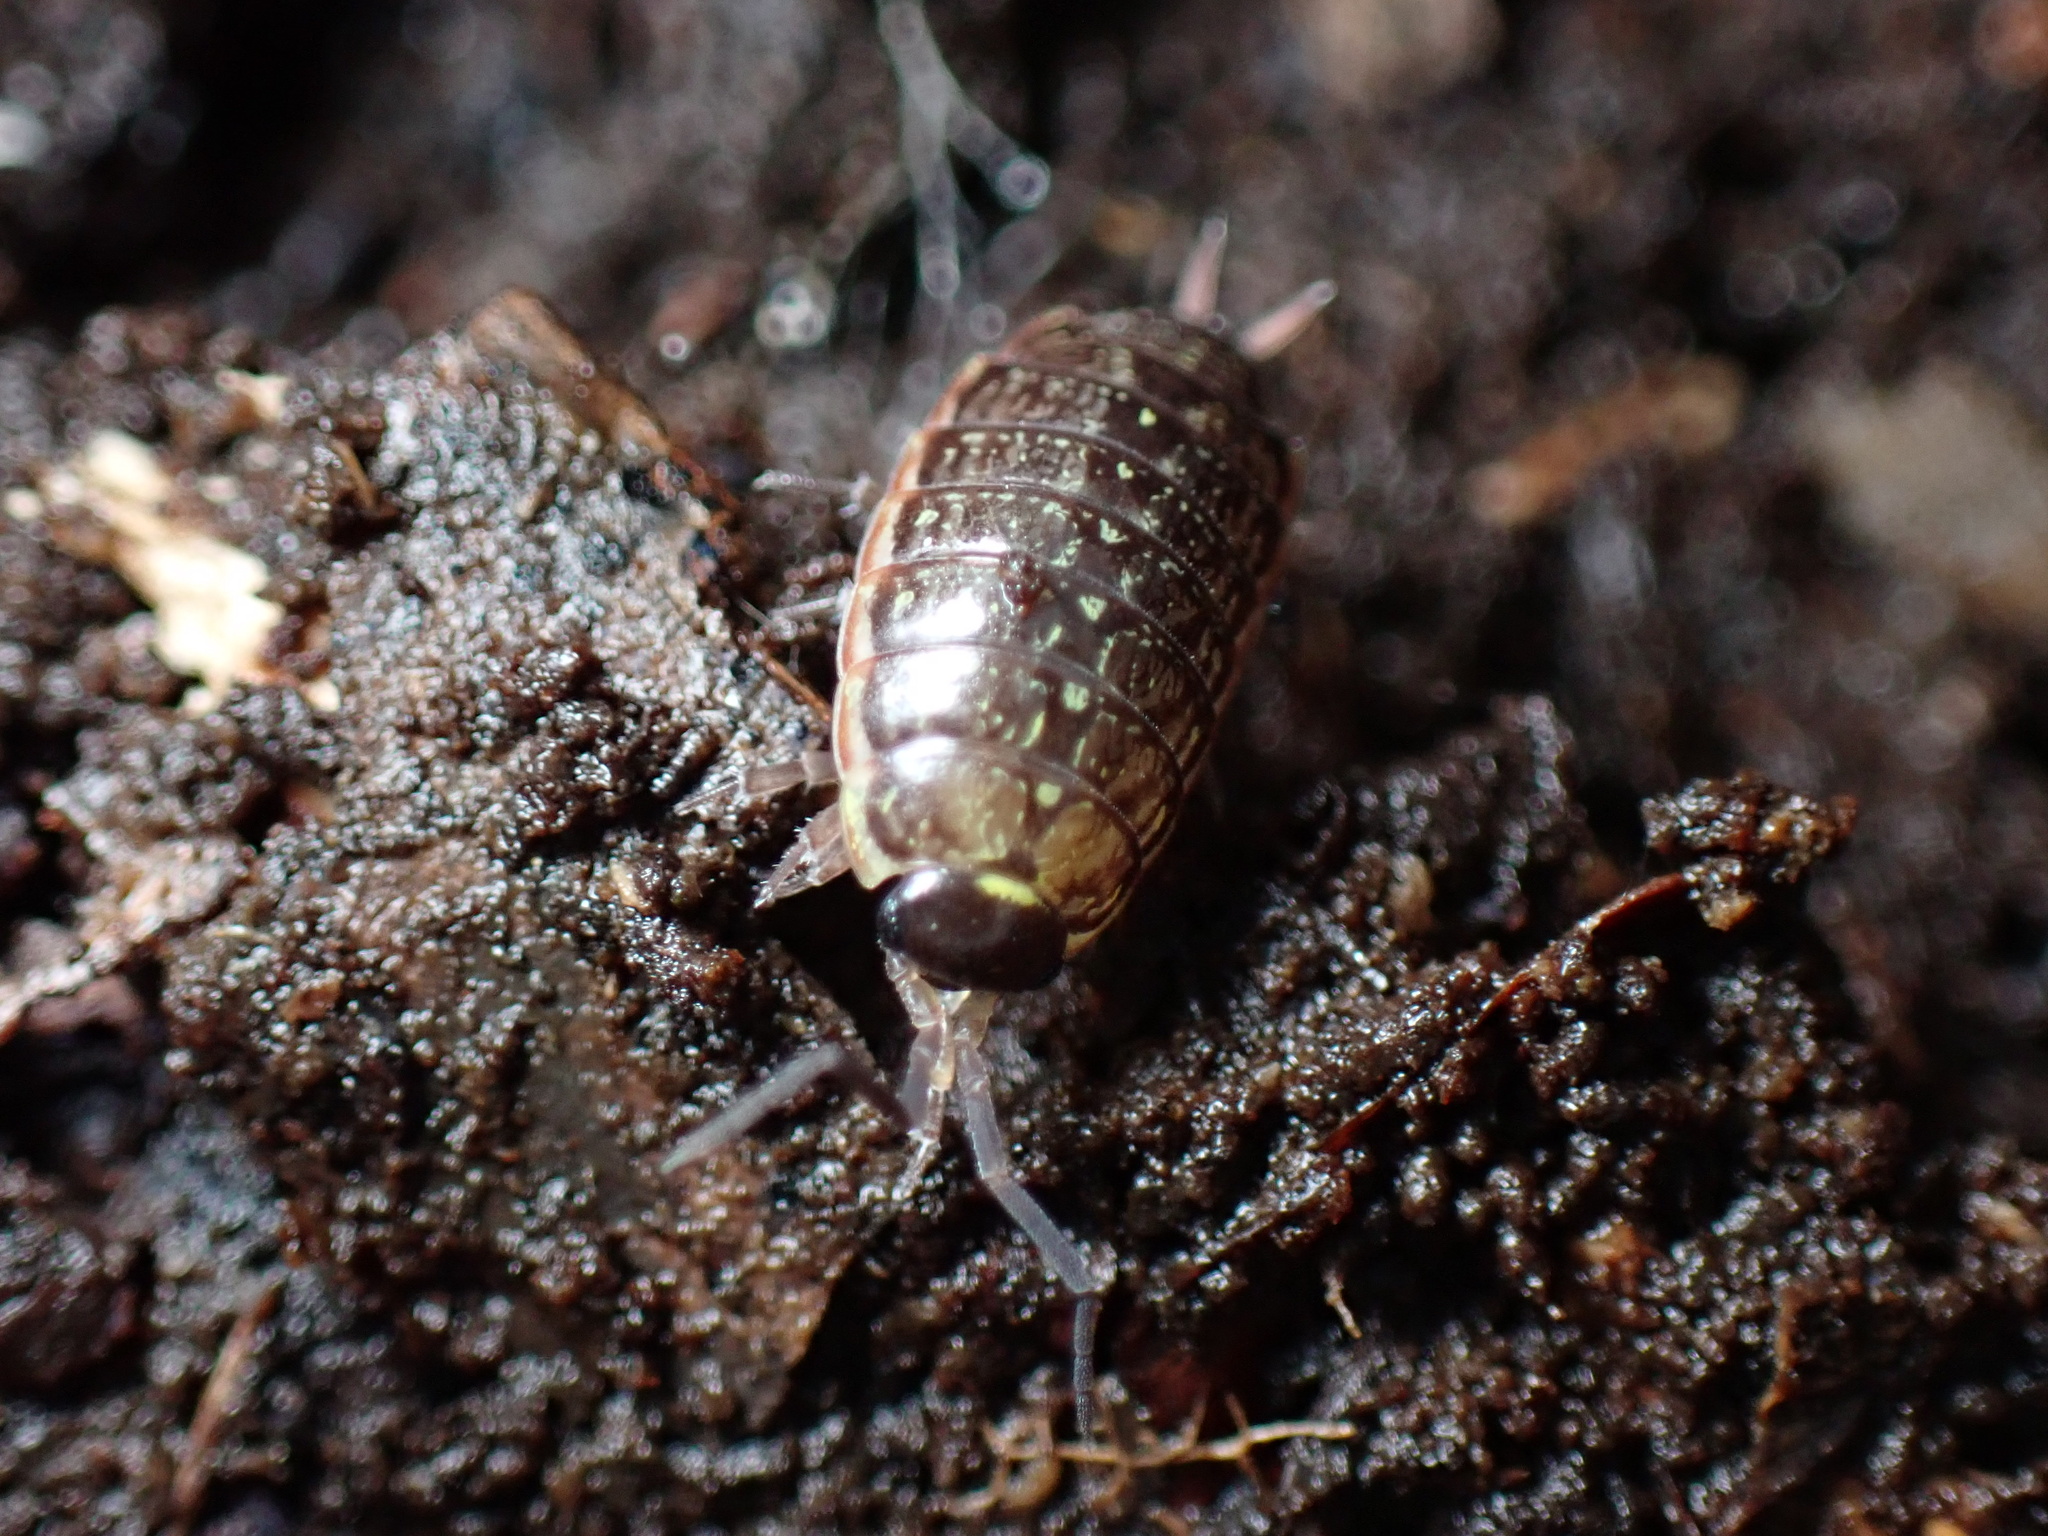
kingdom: Animalia
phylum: Arthropoda
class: Malacostraca
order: Isopoda
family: Philosciidae
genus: Philoscia
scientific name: Philoscia muscorum
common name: Common striped woodlouse
